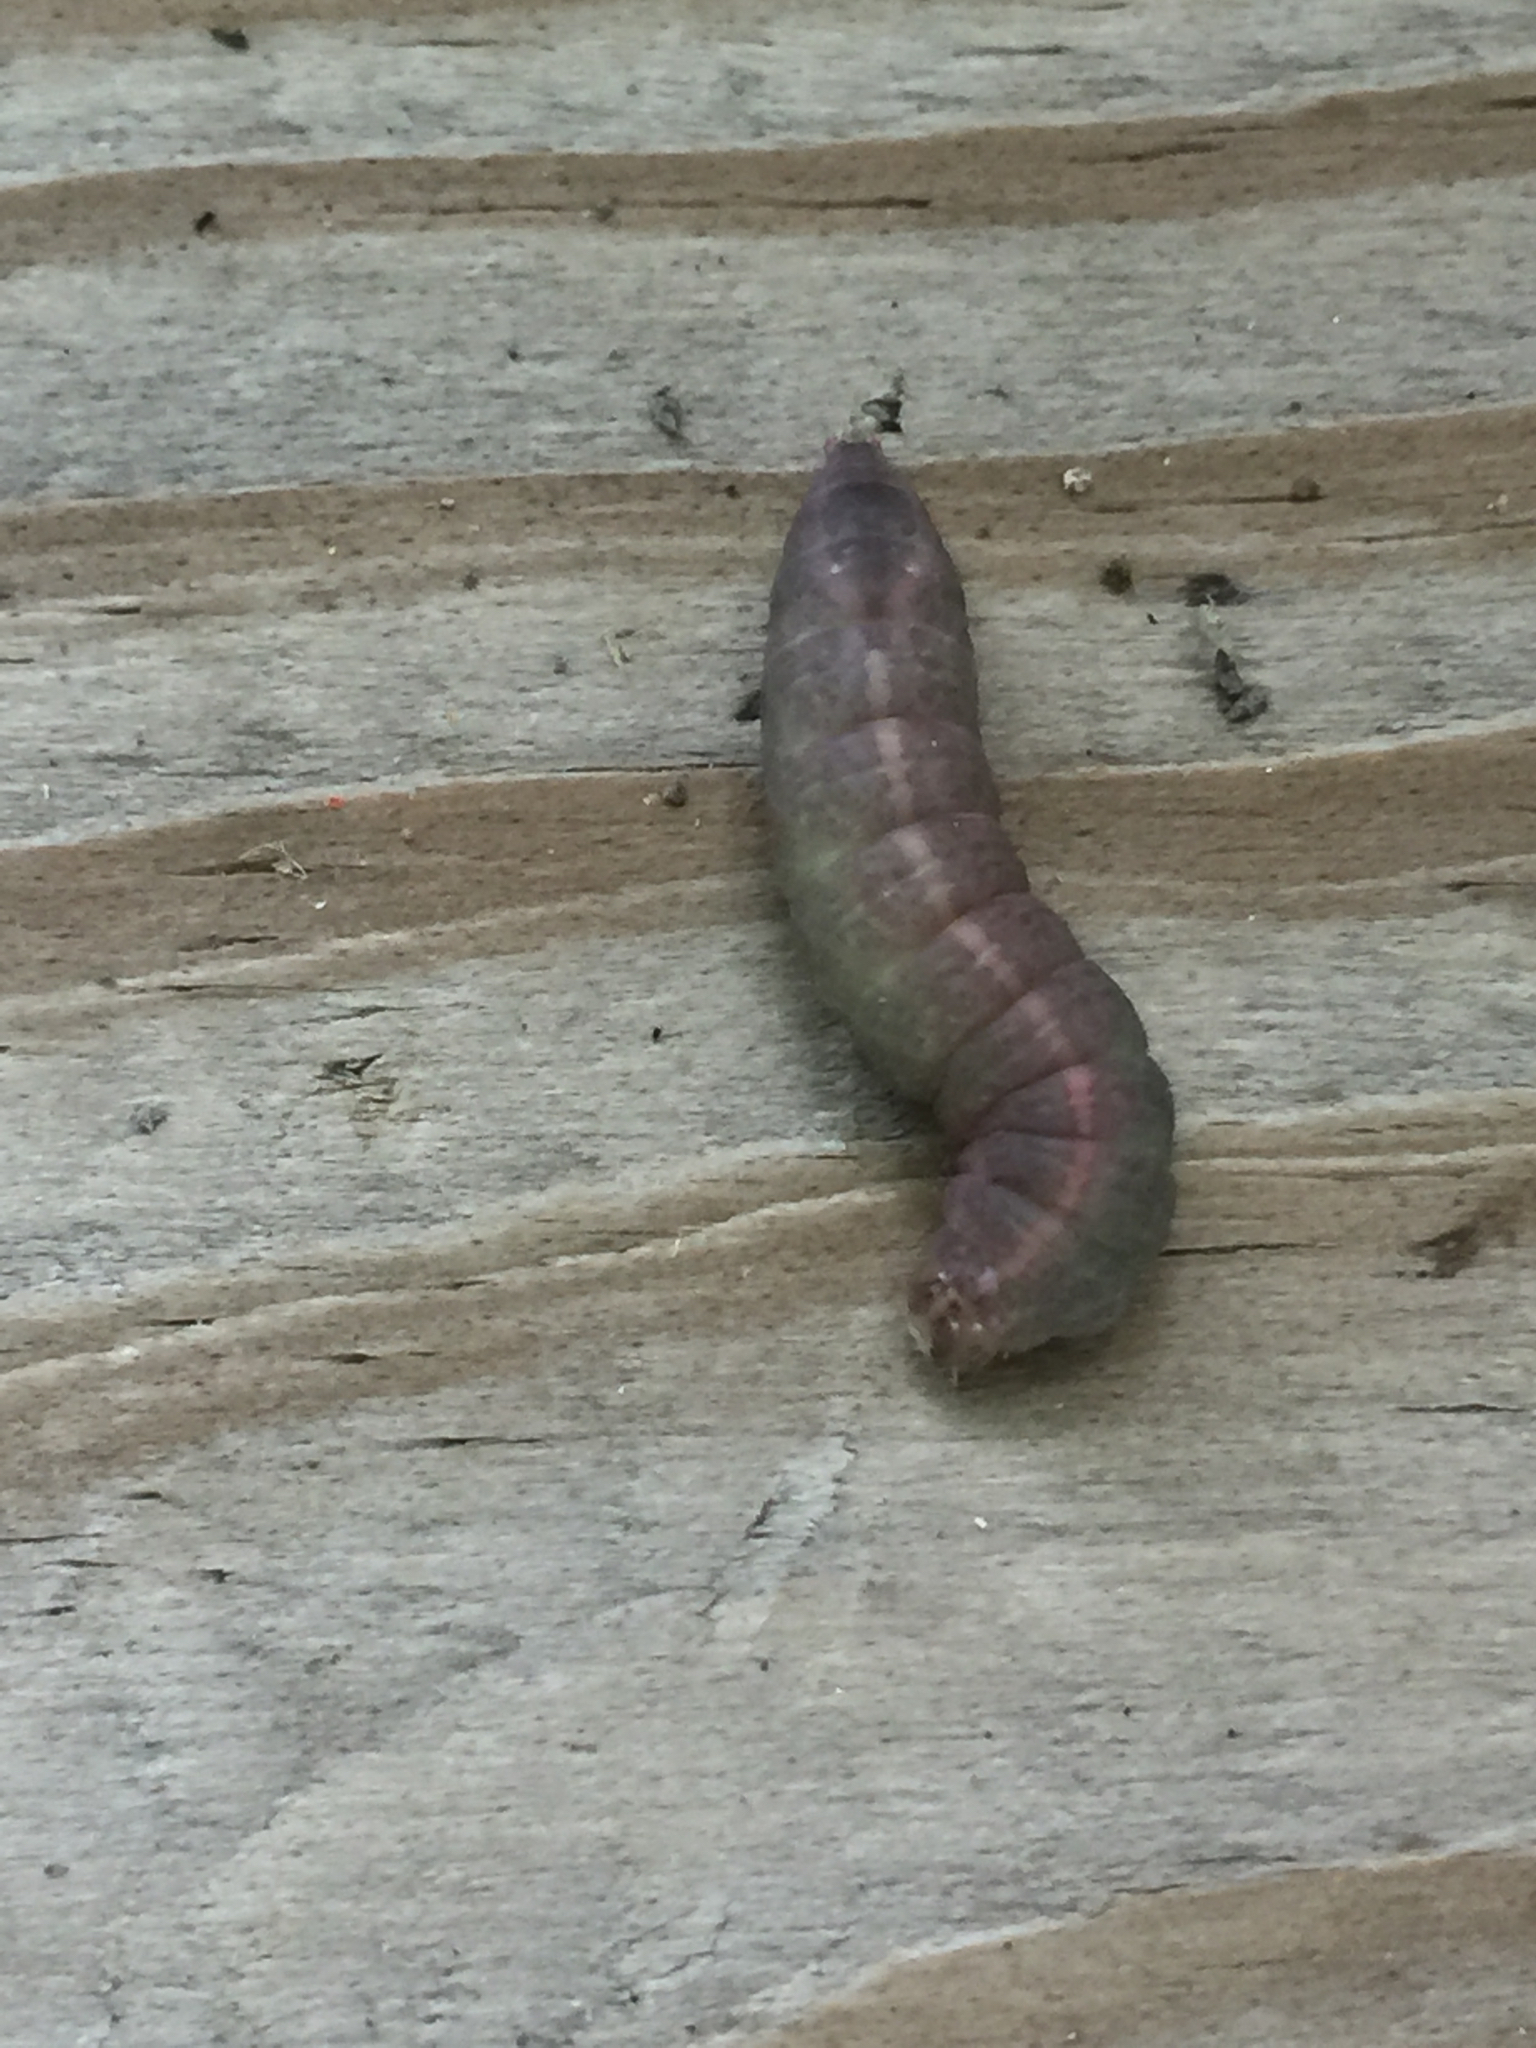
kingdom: Animalia
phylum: Arthropoda
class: Insecta
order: Lepidoptera
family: Notodontidae
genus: Rifargia
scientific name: Rifargia
